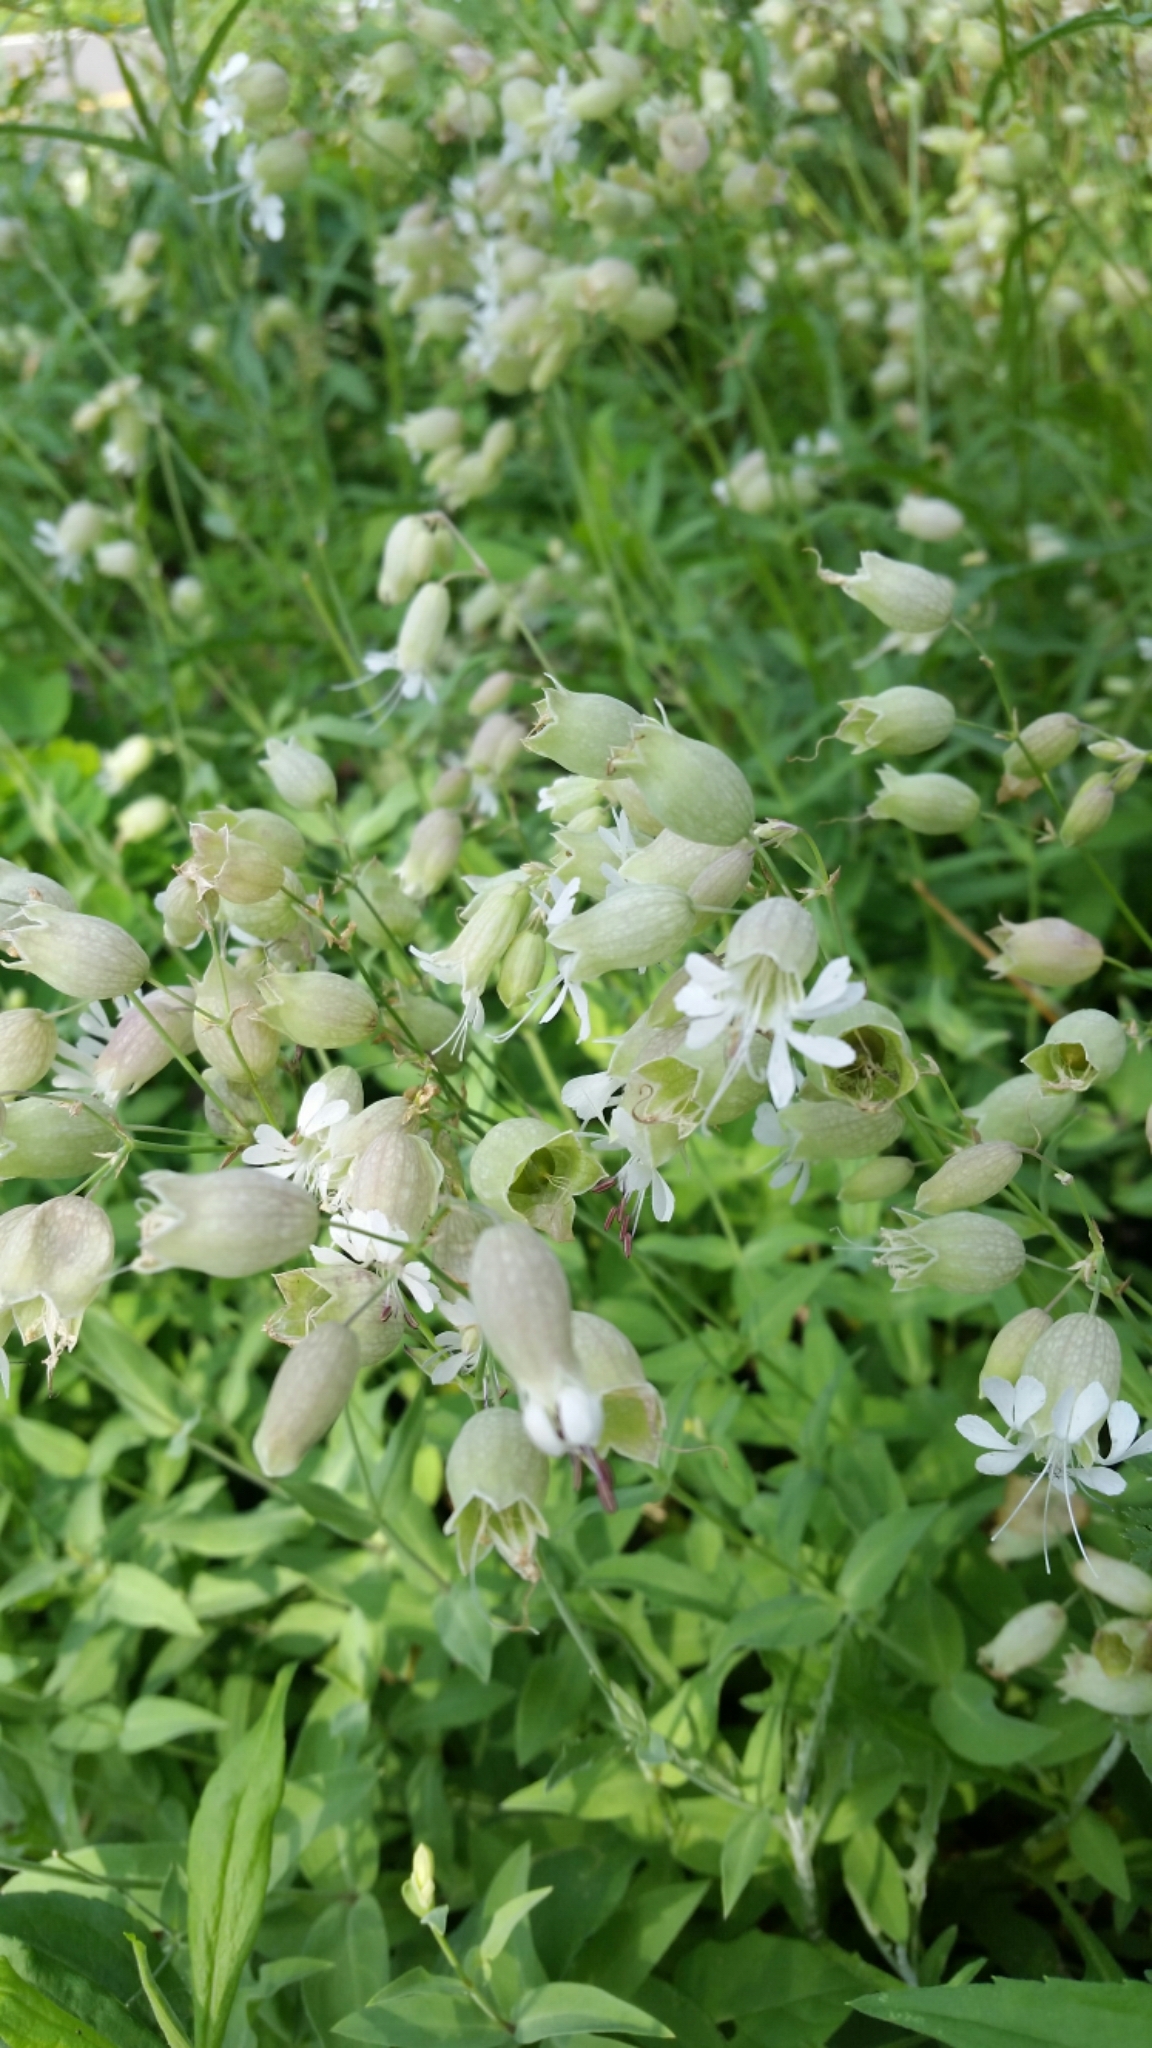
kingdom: Plantae
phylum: Tracheophyta
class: Magnoliopsida
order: Caryophyllales
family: Caryophyllaceae
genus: Silene
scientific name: Silene vulgaris
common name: Bladder campion
